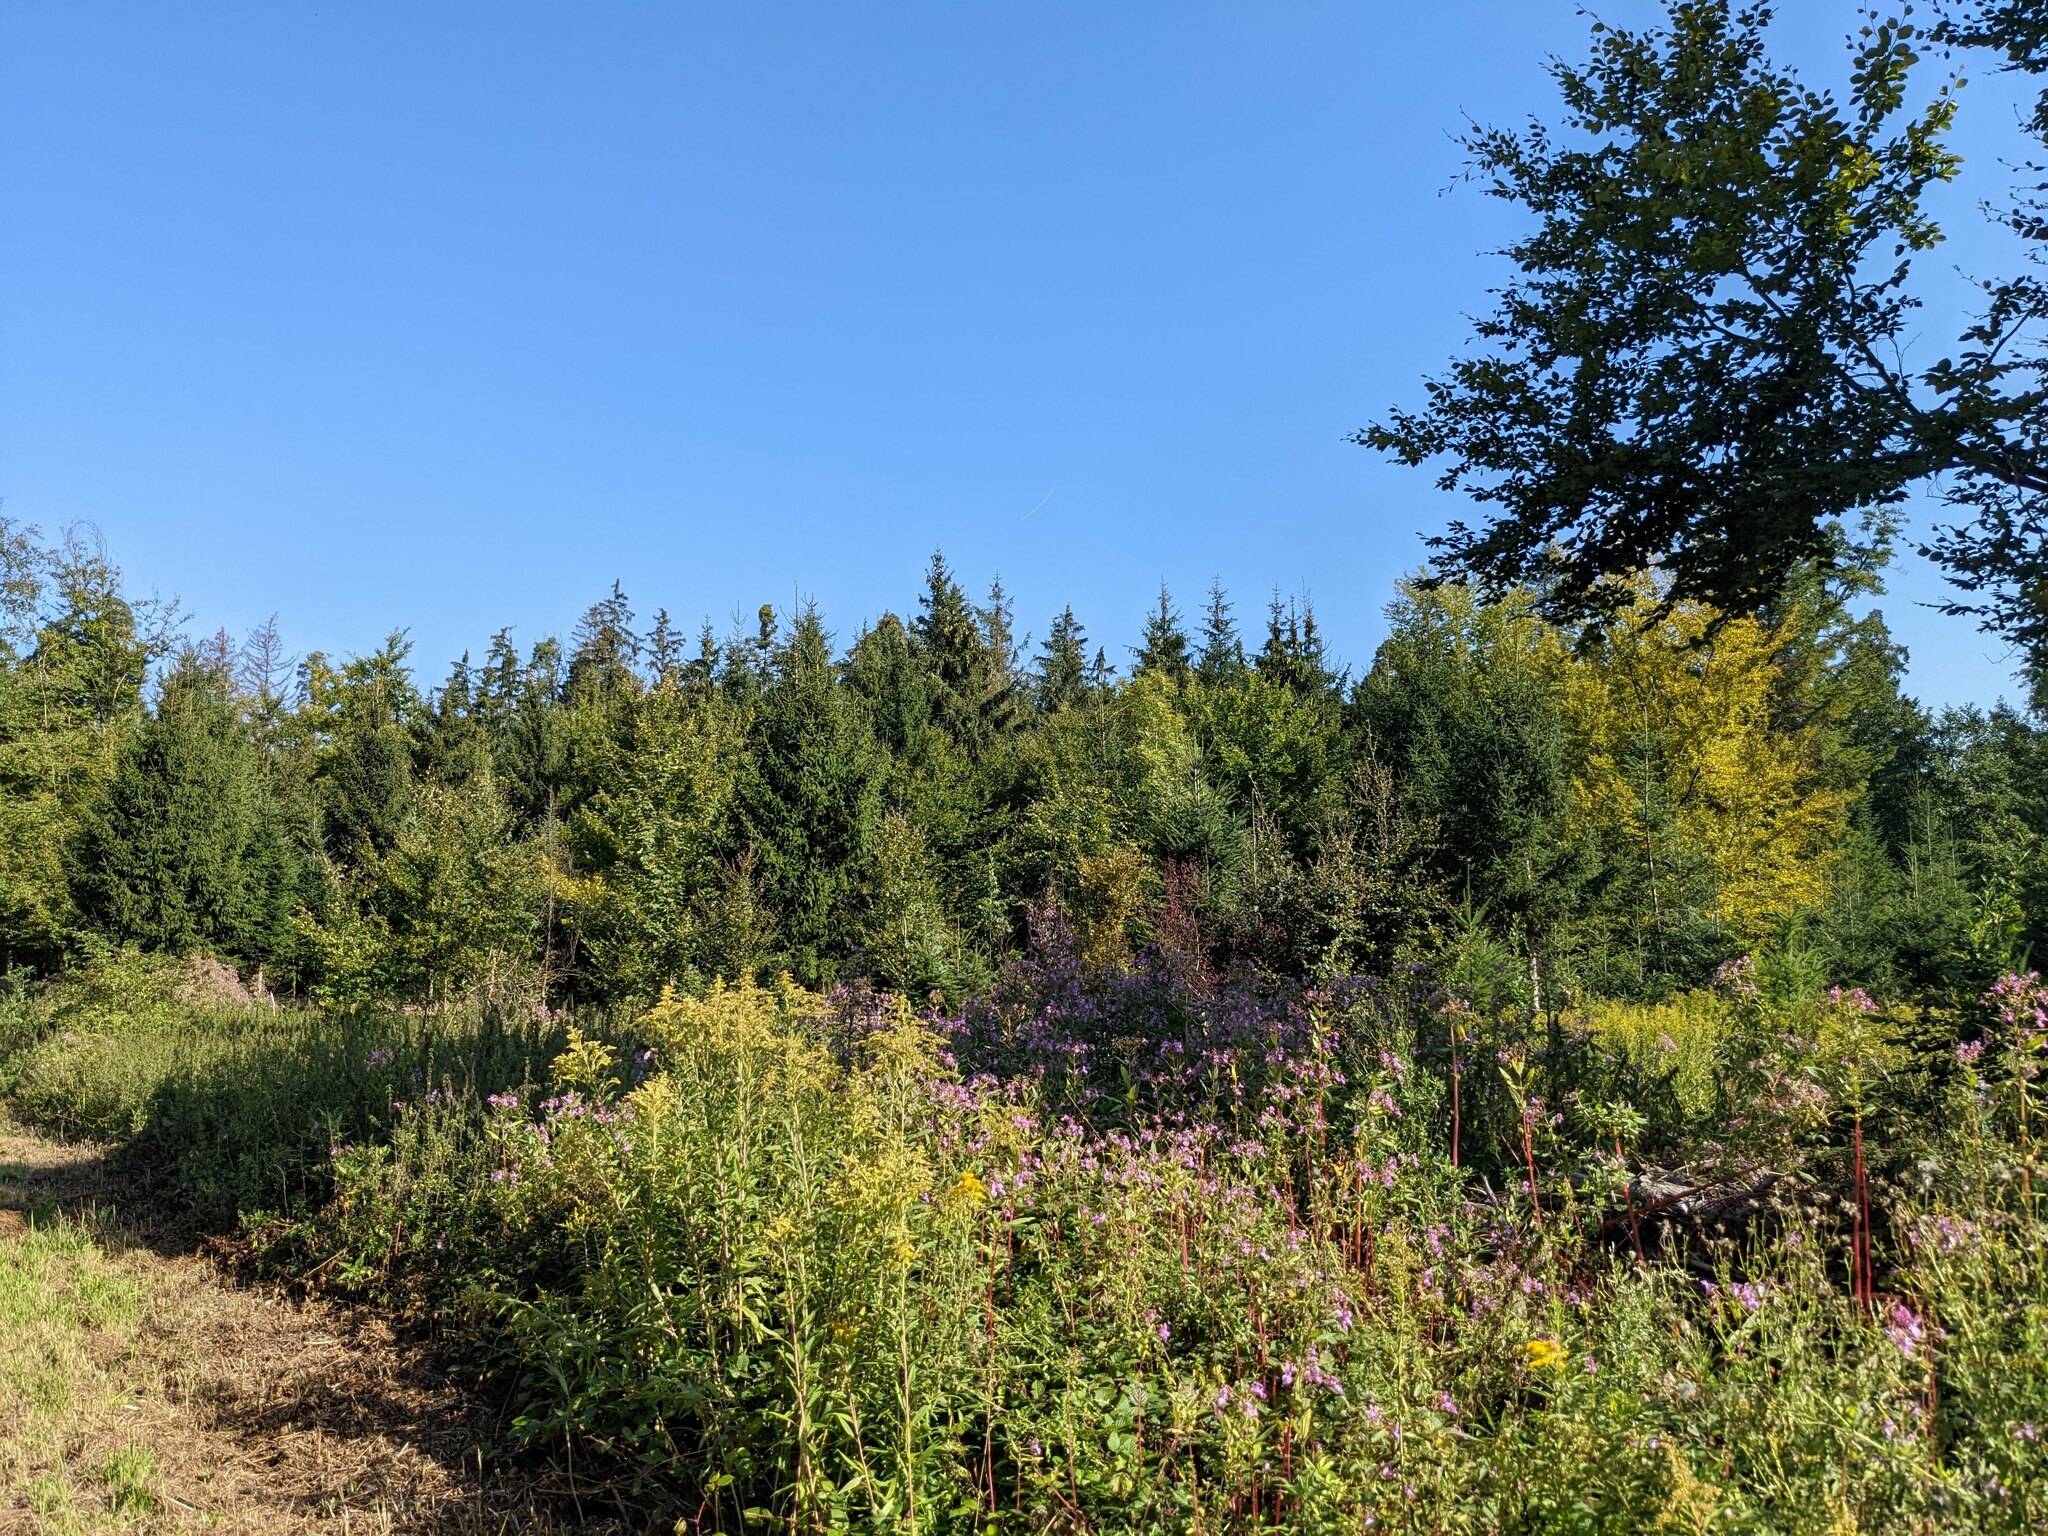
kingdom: Plantae
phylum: Tracheophyta
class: Magnoliopsida
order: Ericales
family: Balsaminaceae
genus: Impatiens
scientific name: Impatiens glandulifera
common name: Himalayan balsam
